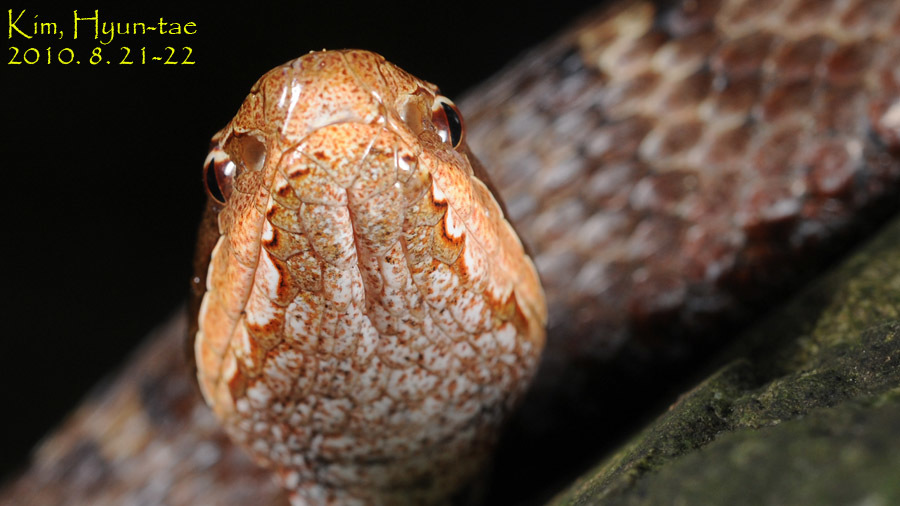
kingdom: Animalia
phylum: Chordata
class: Squamata
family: Viperidae
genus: Gloydius
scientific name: Gloydius ussuriensis
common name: Ussuri mamushi
